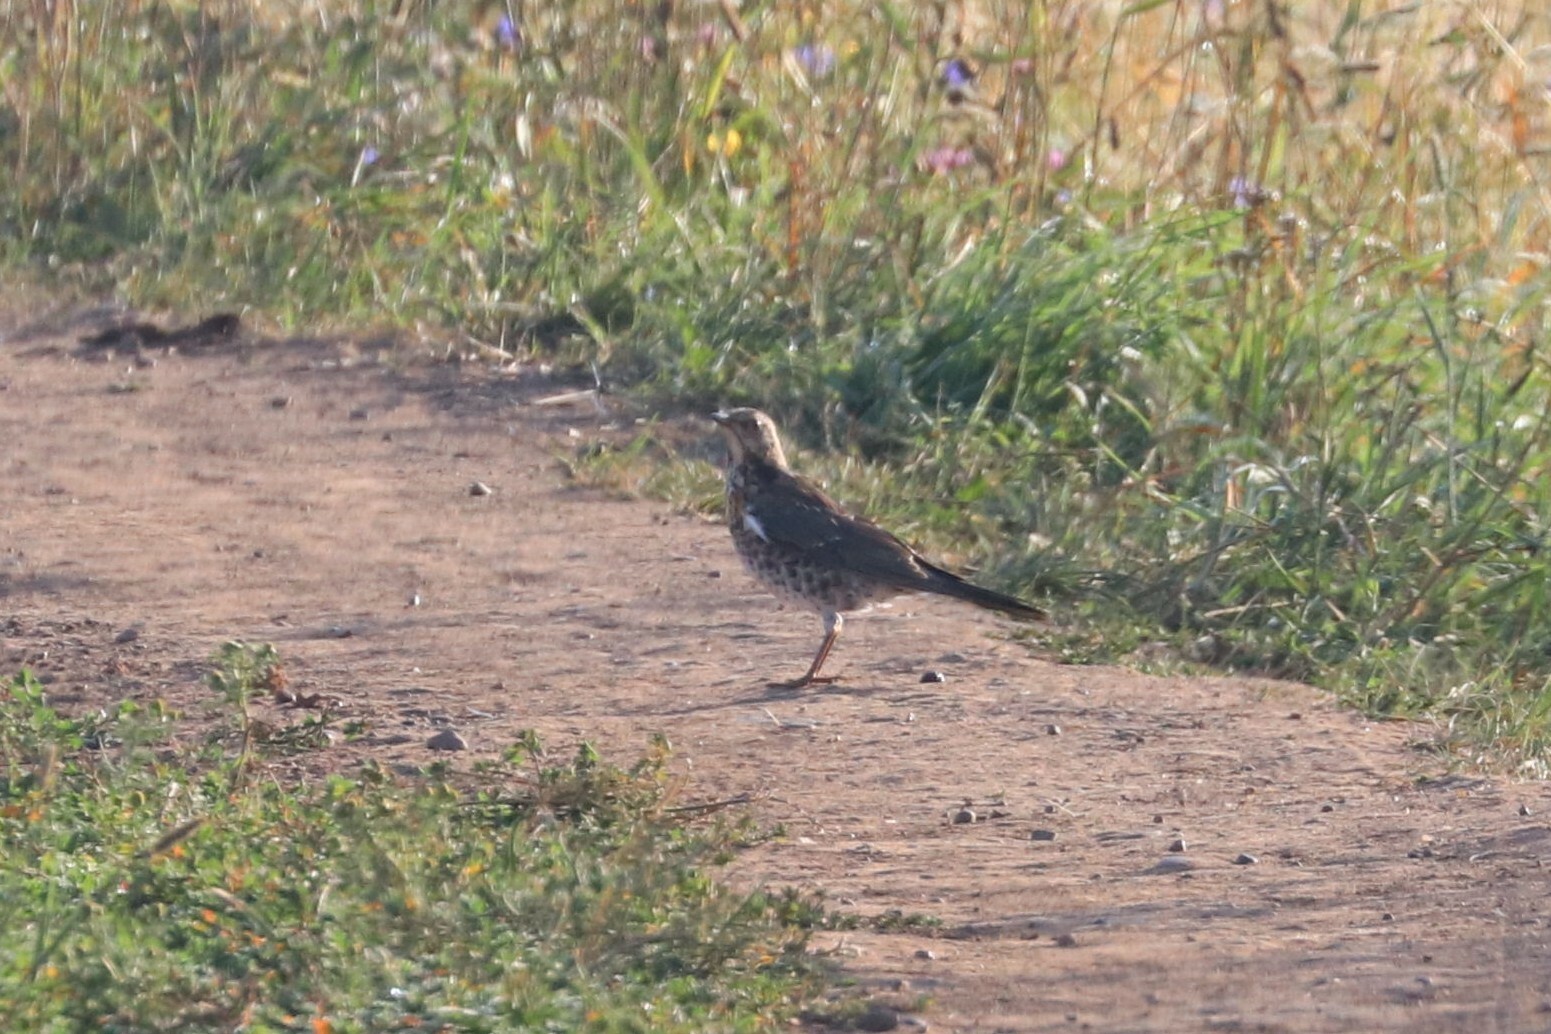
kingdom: Animalia
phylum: Chordata
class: Aves
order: Passeriformes
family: Turdidae
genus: Turdus
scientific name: Turdus pilaris
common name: Fieldfare
